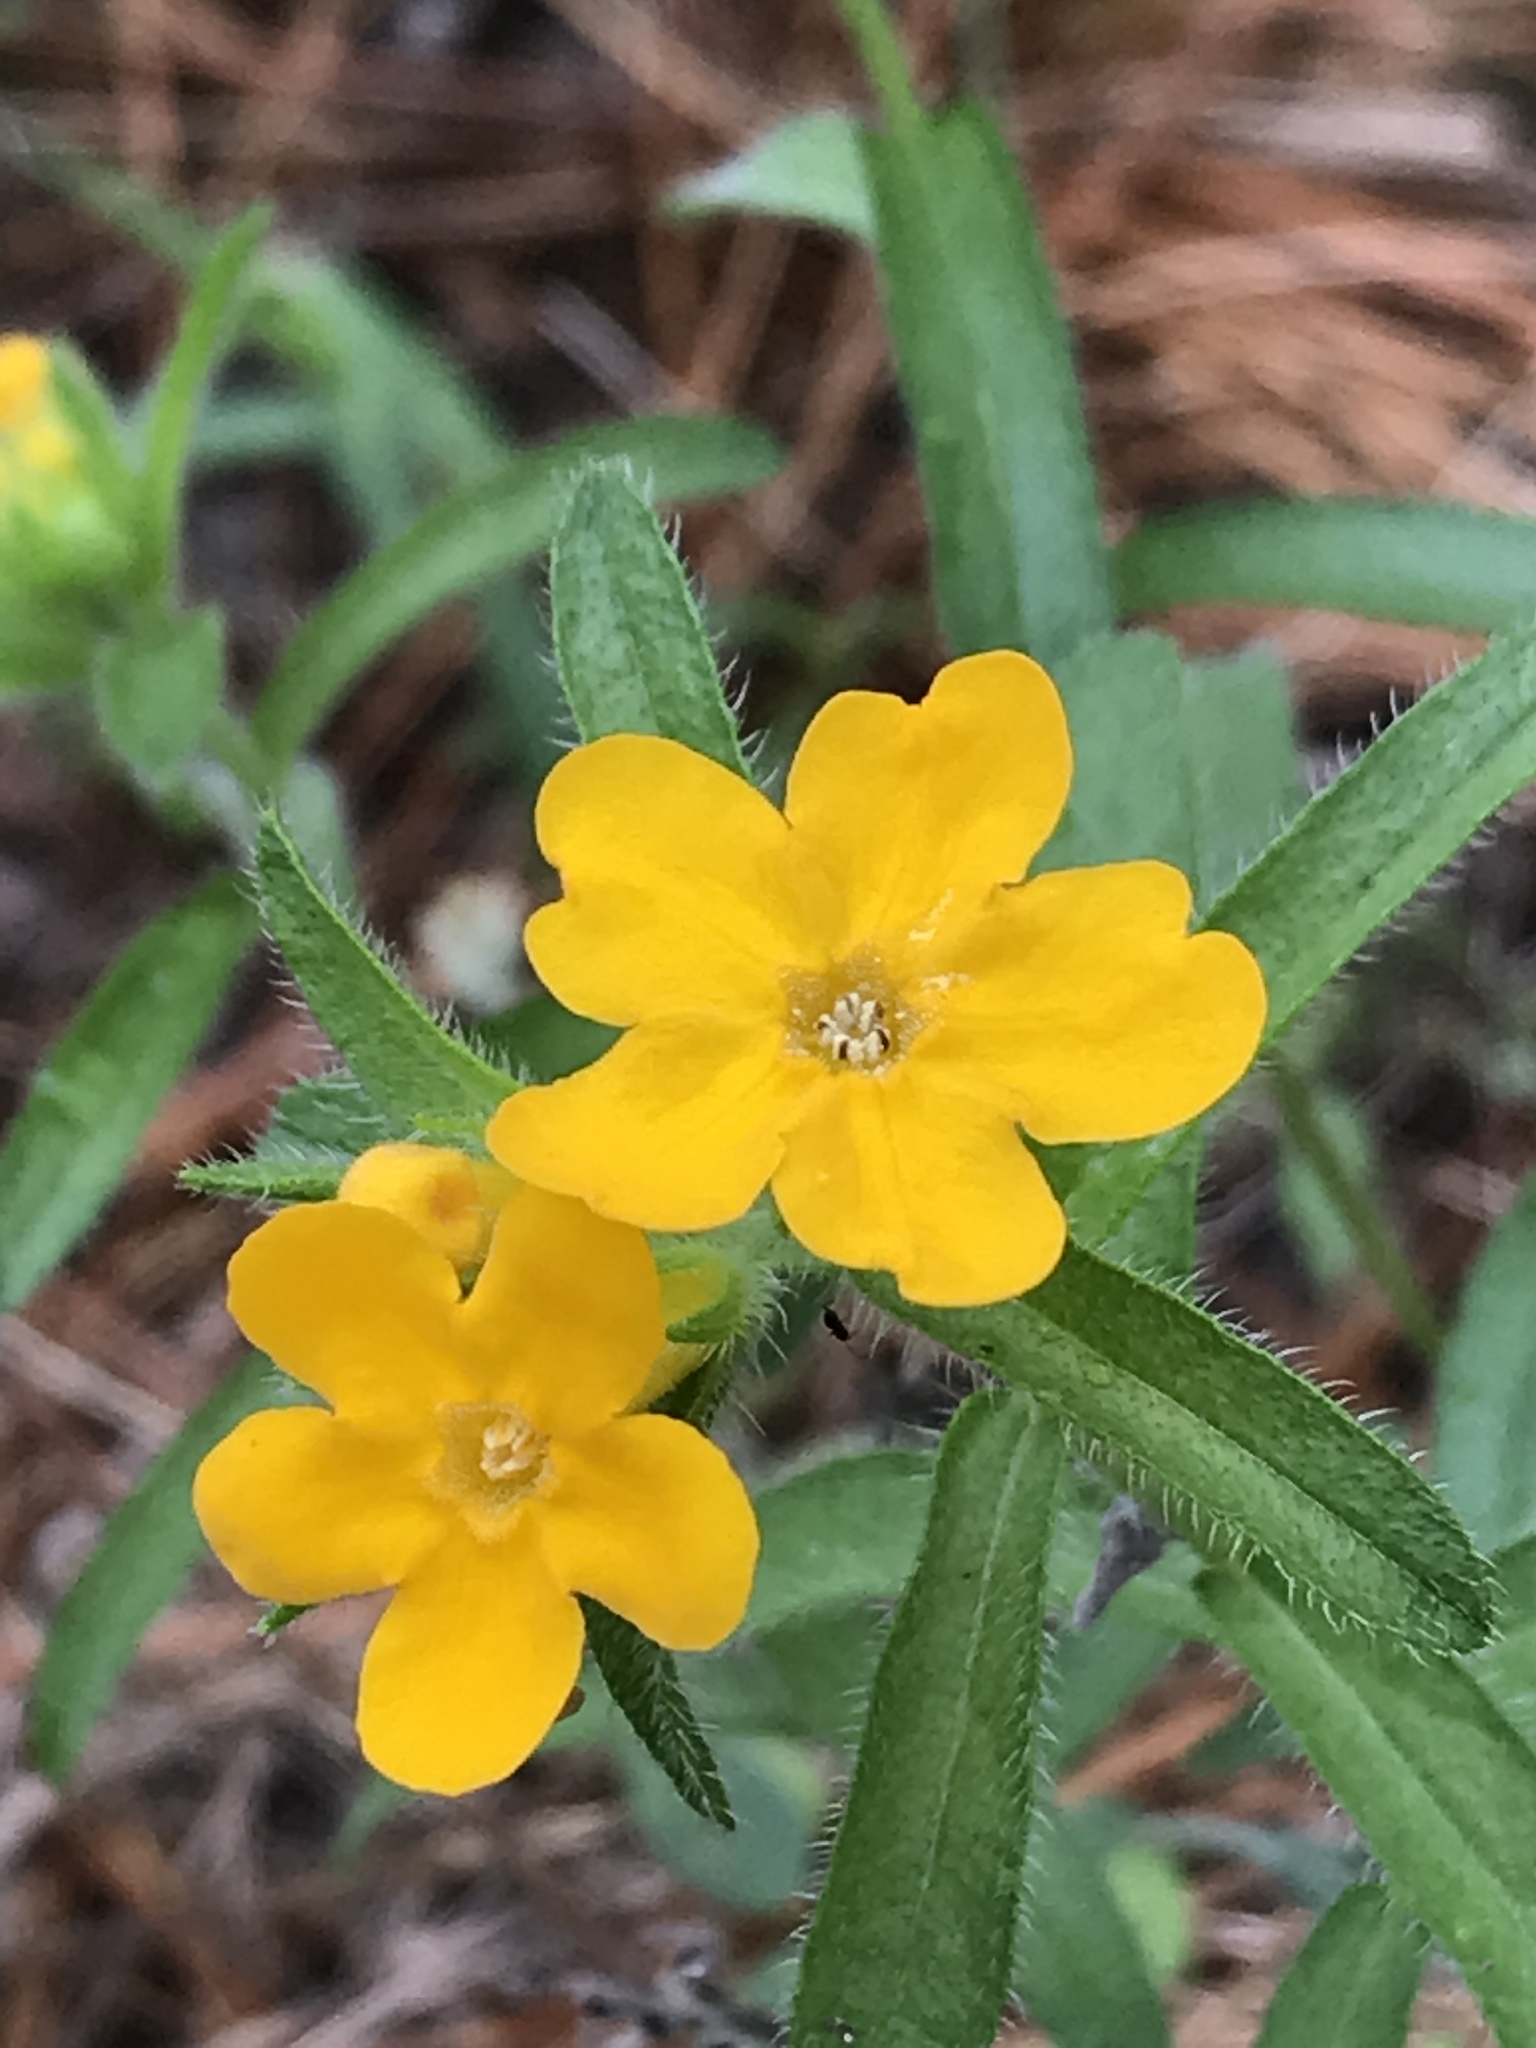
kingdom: Plantae
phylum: Tracheophyta
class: Magnoliopsida
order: Boraginales
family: Boraginaceae
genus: Lithospermum
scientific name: Lithospermum caroliniense
